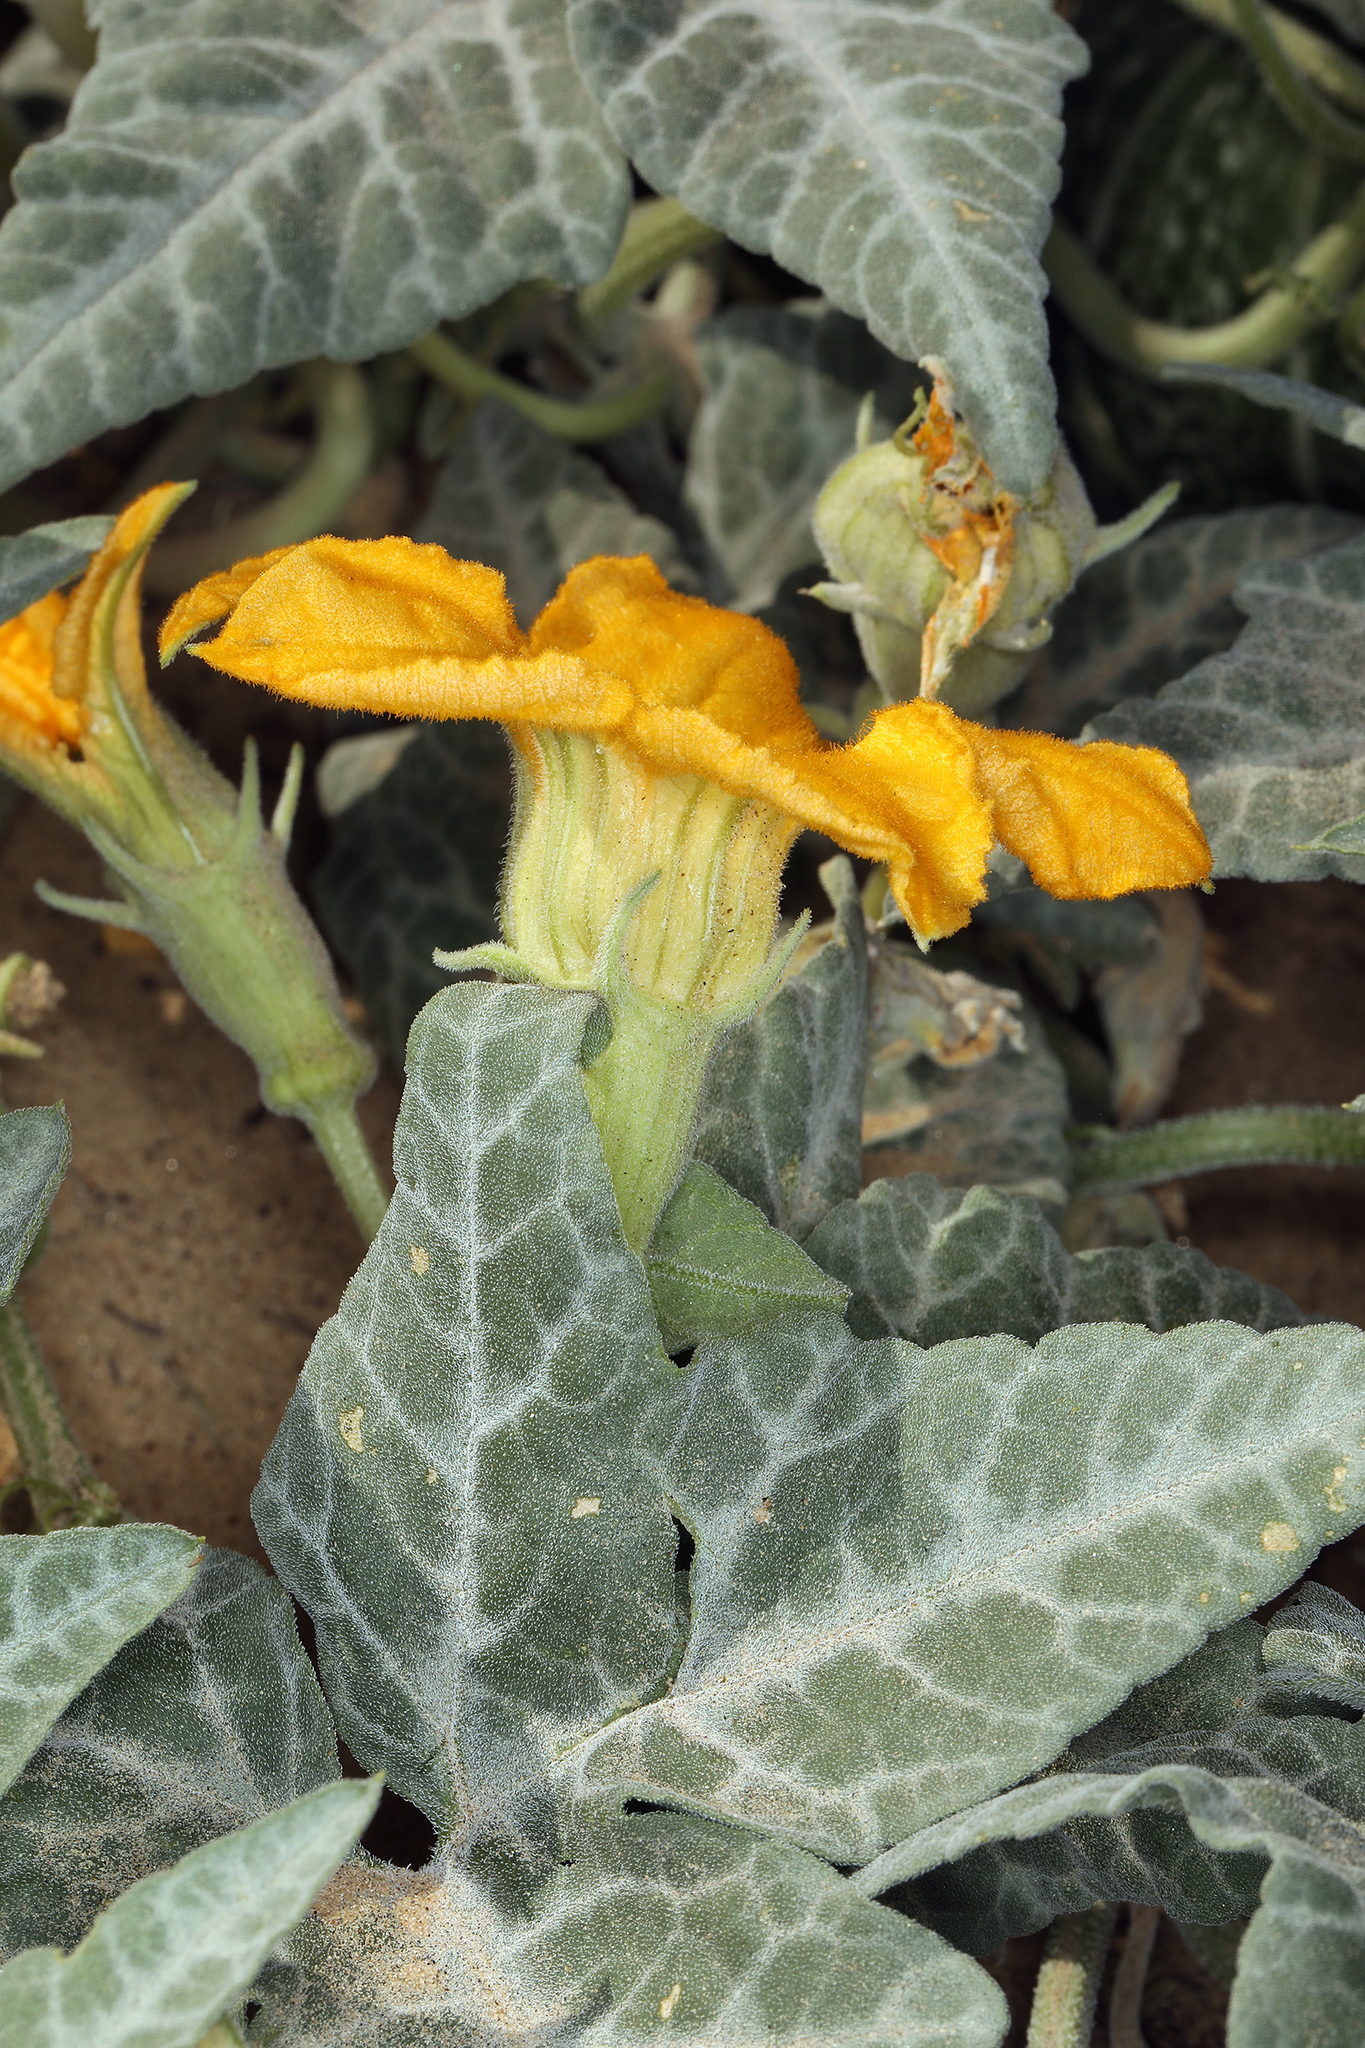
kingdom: Plantae
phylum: Tracheophyta
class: Magnoliopsida
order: Cucurbitales
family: Cucurbitaceae
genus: Cucurbita
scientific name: Cucurbita palmata
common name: Coyote-melon
